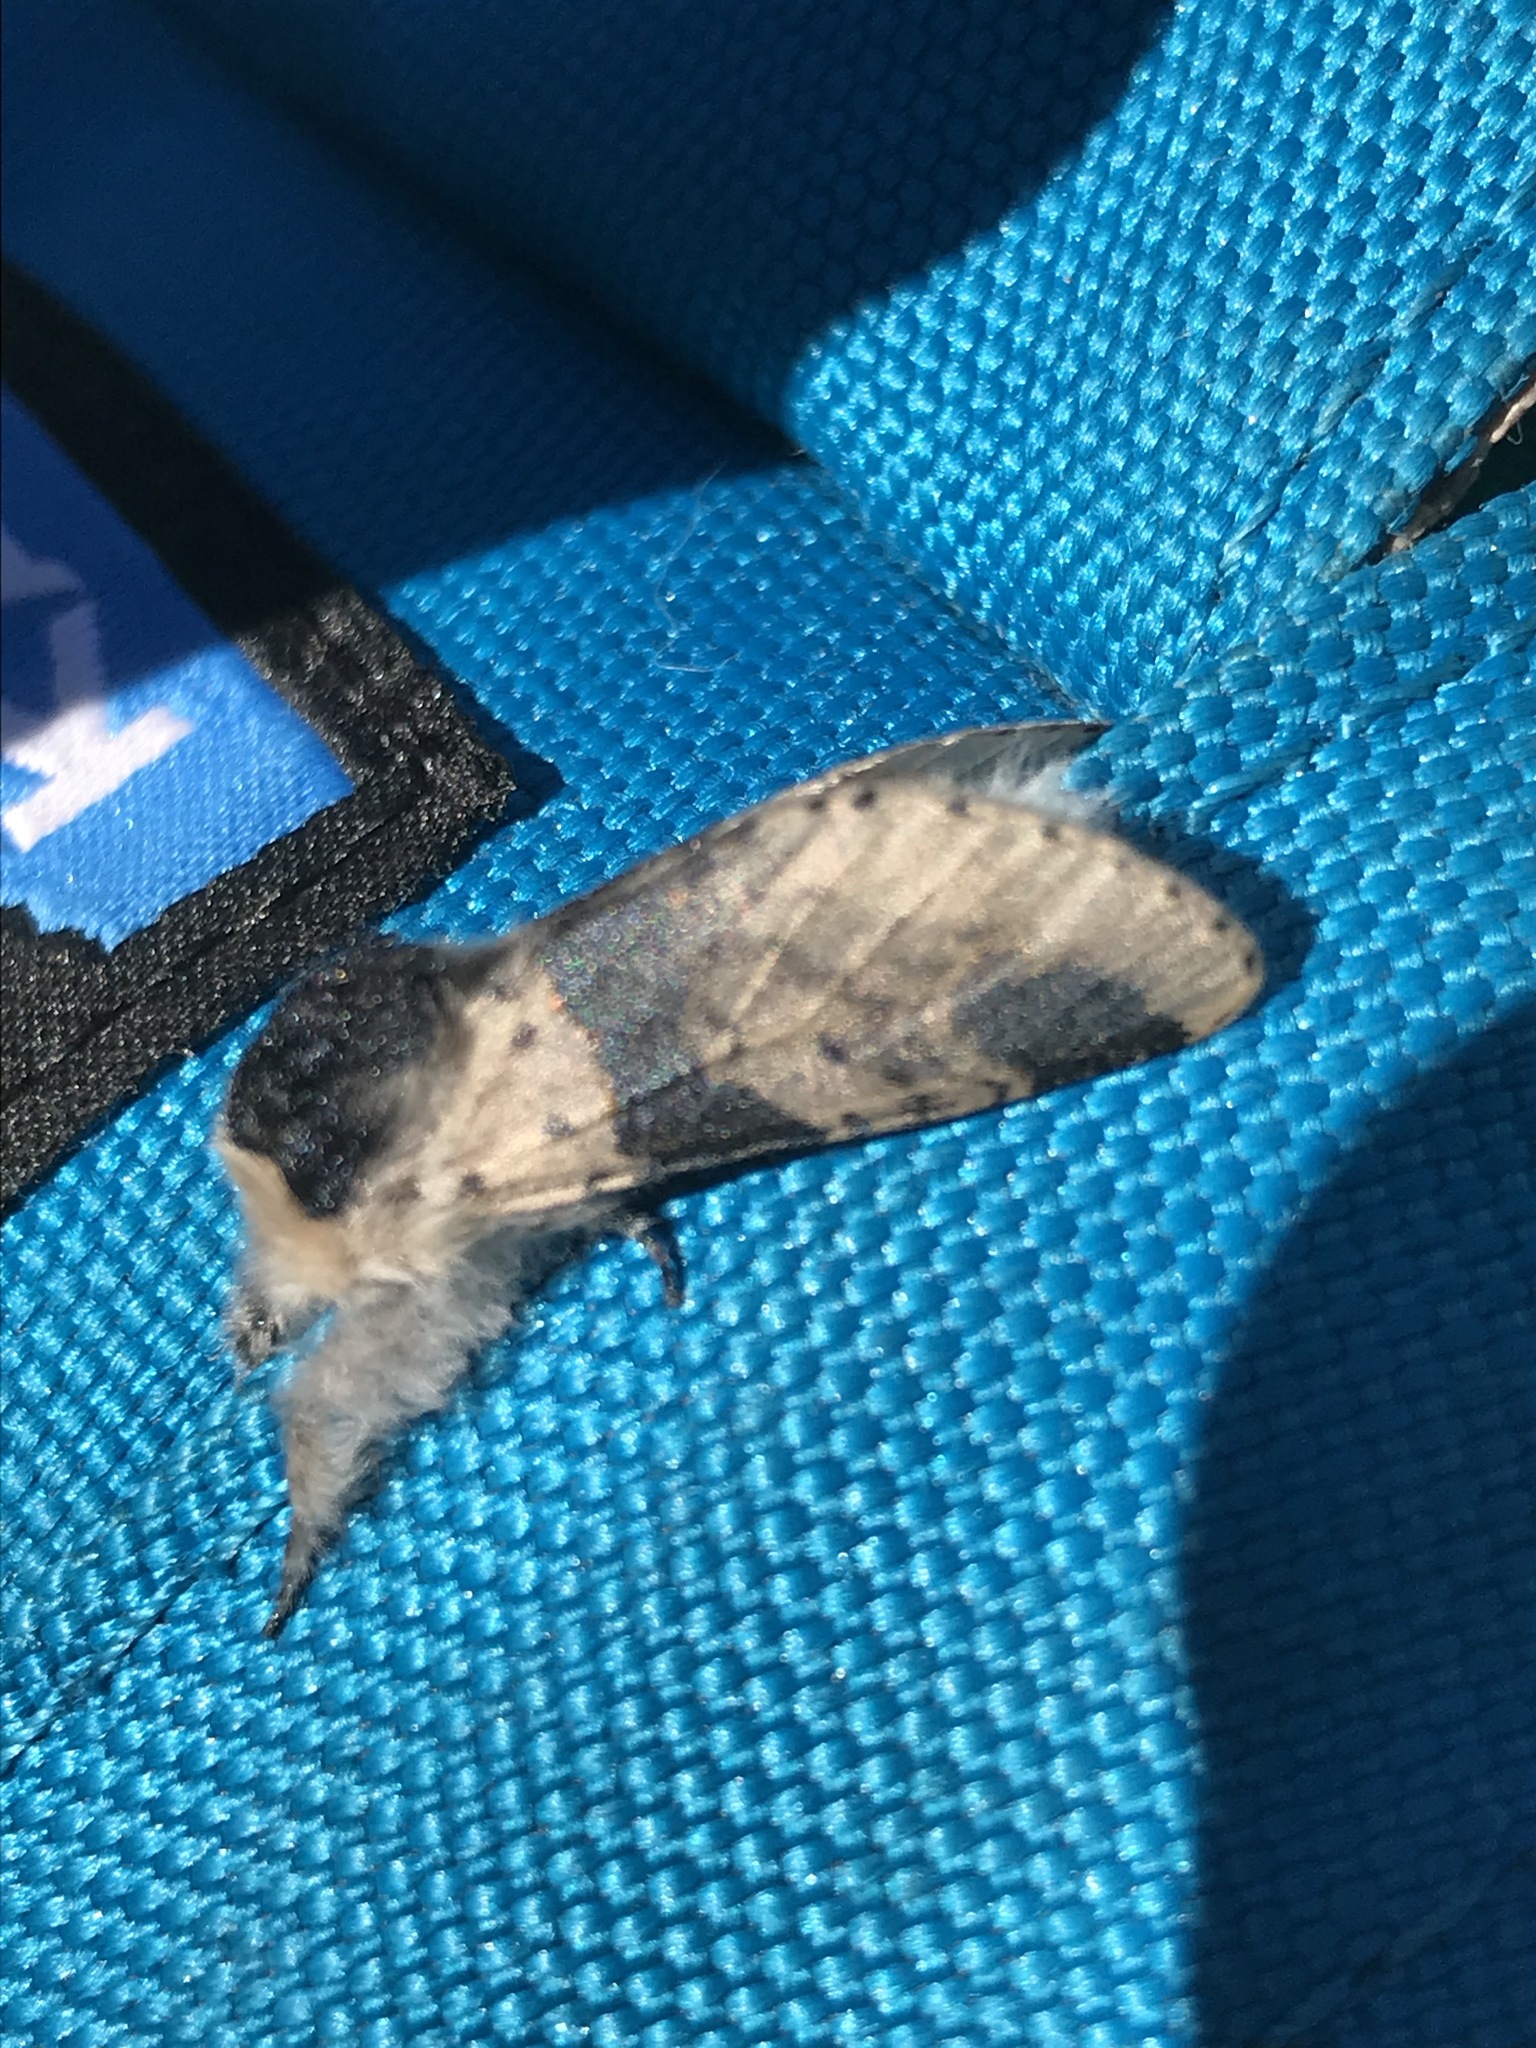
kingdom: Animalia
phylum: Arthropoda
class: Insecta
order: Lepidoptera
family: Notodontidae
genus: Furcula
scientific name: Furcula modesta
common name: Modest furcula moth
